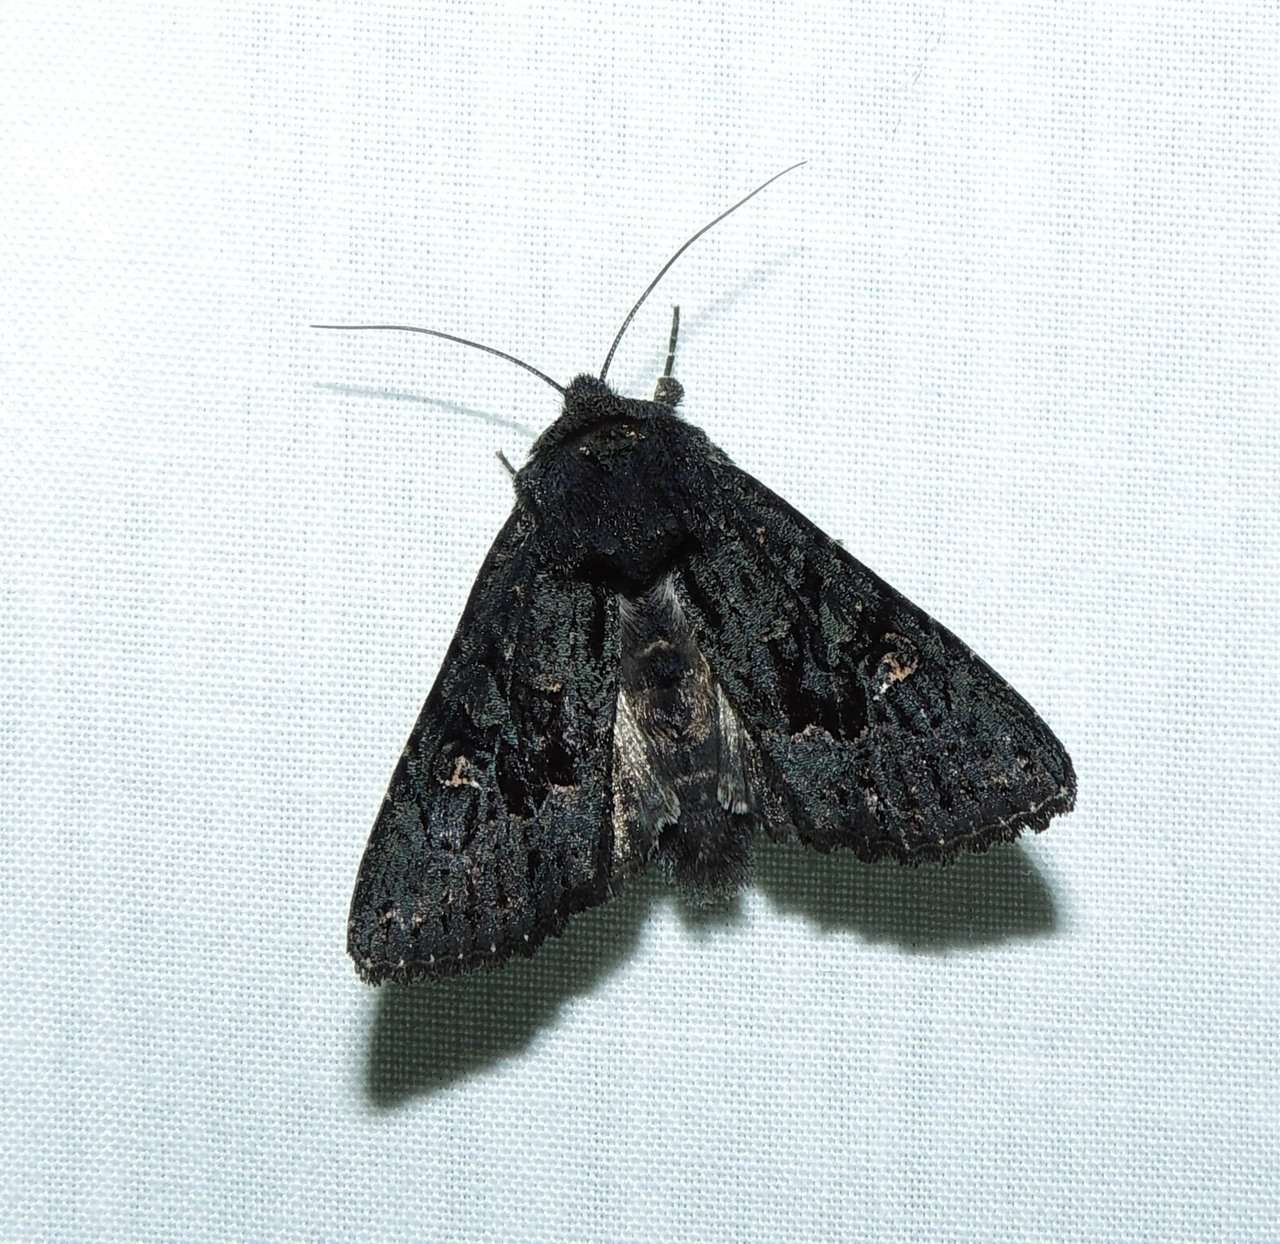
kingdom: Animalia
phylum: Arthropoda
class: Insecta
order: Lepidoptera
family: Noctuidae
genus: Neumichtis
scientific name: Neumichtis nigerrima
